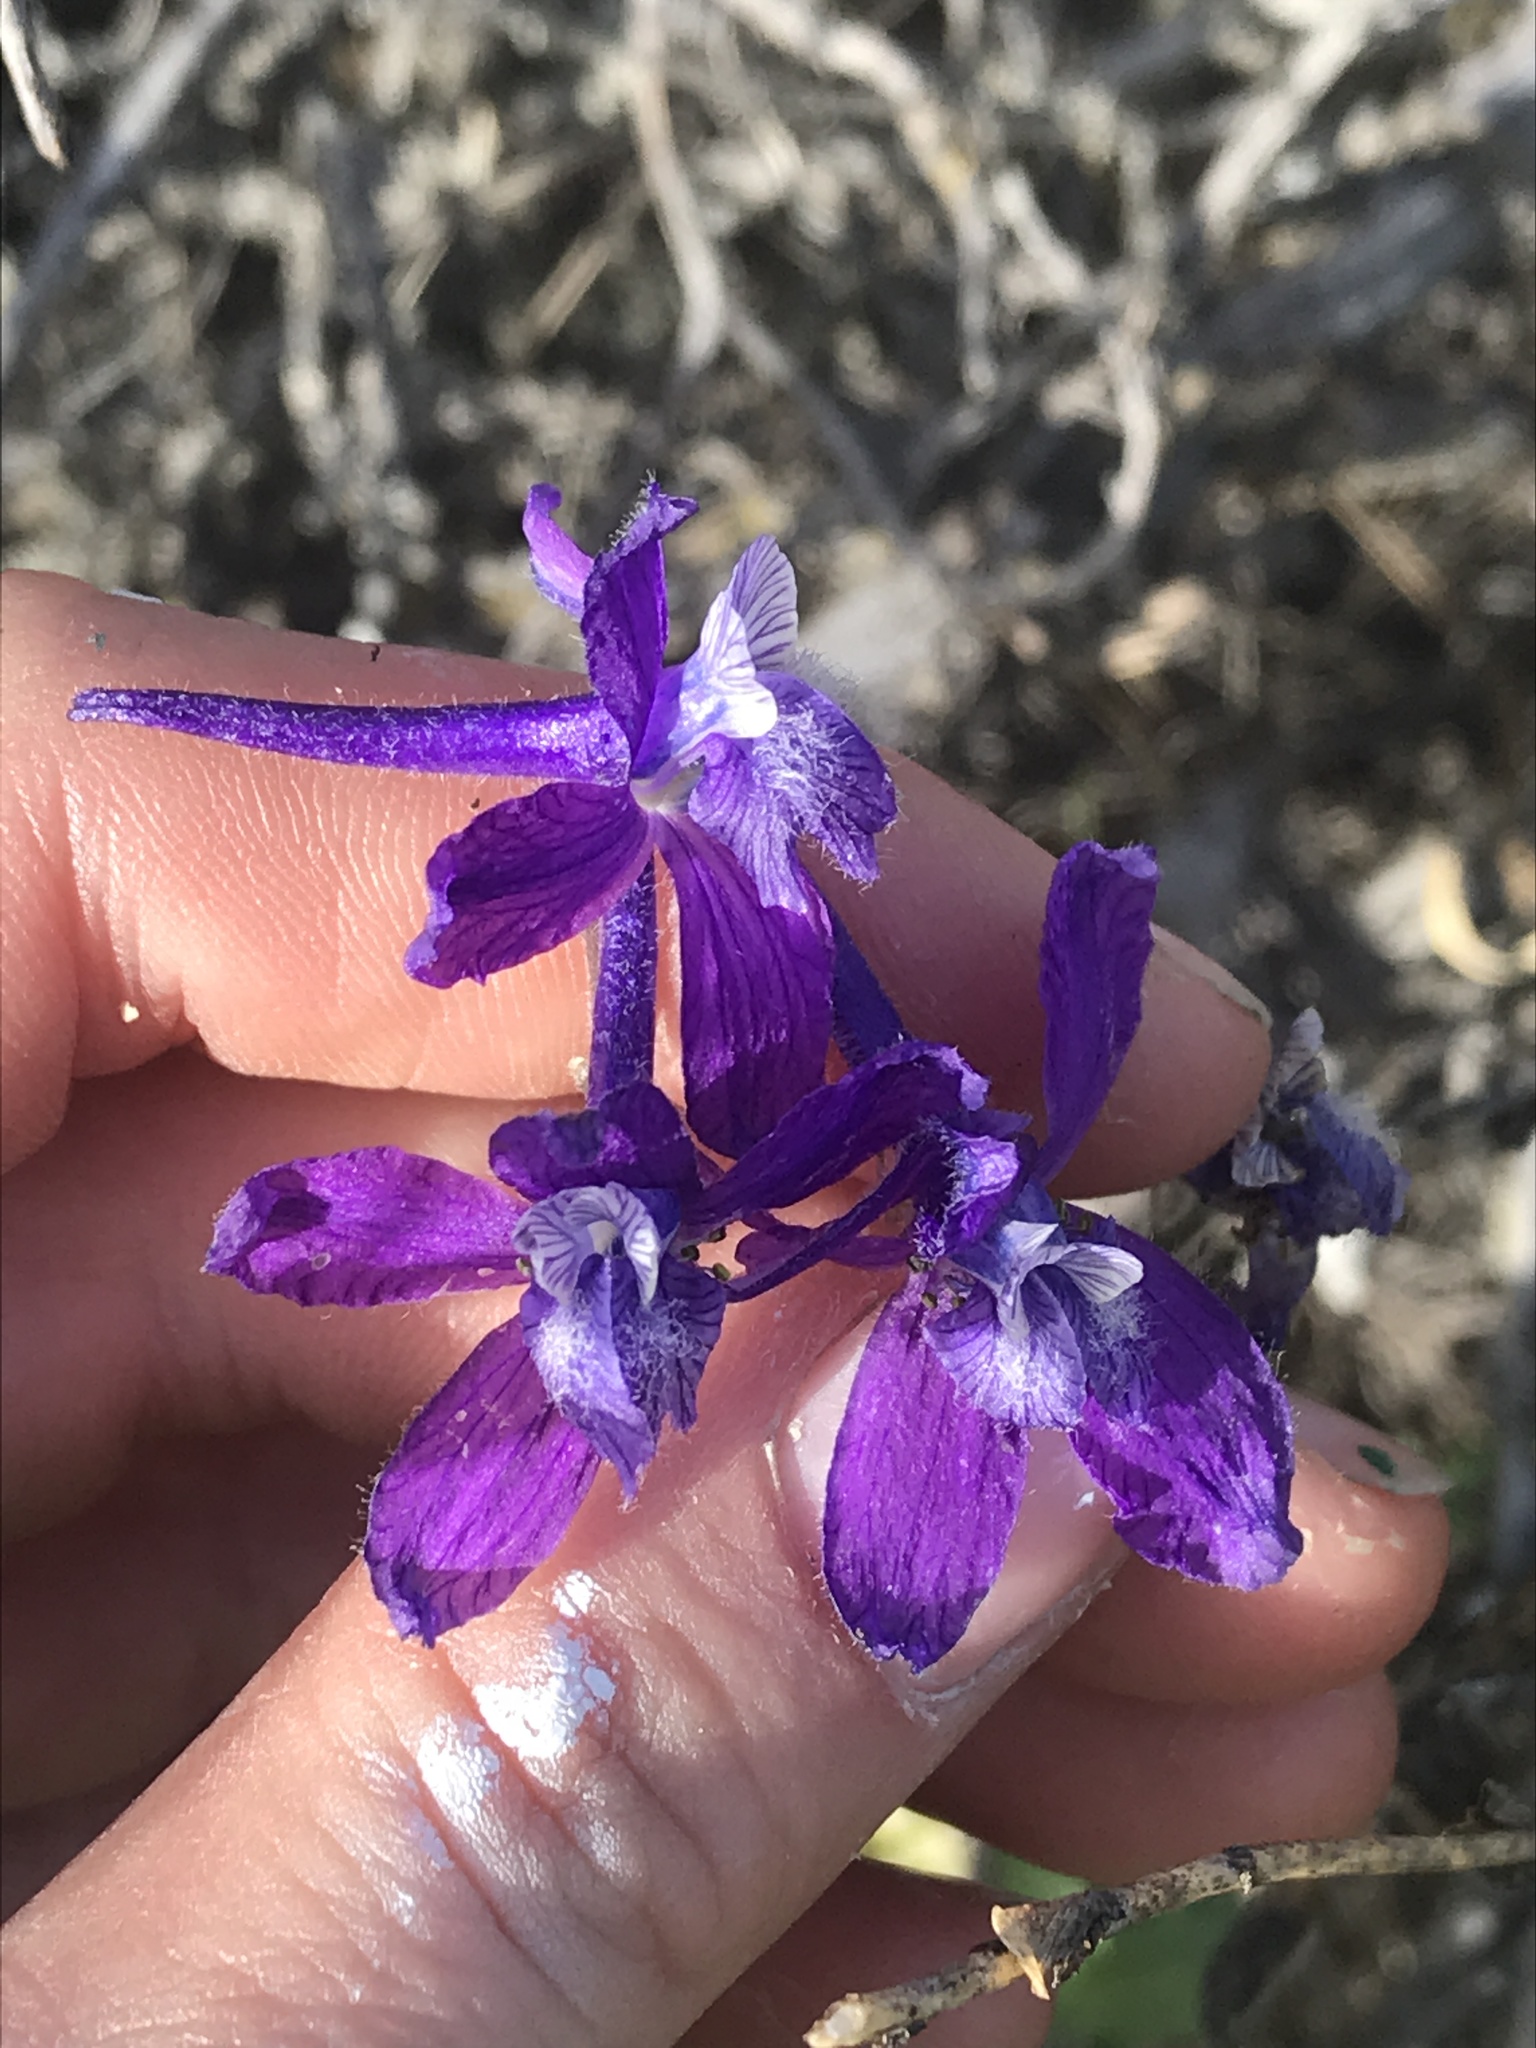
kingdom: Plantae
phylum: Tracheophyta
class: Magnoliopsida
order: Ranunculales
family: Ranunculaceae
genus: Delphinium
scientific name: Delphinium nuttallianum
